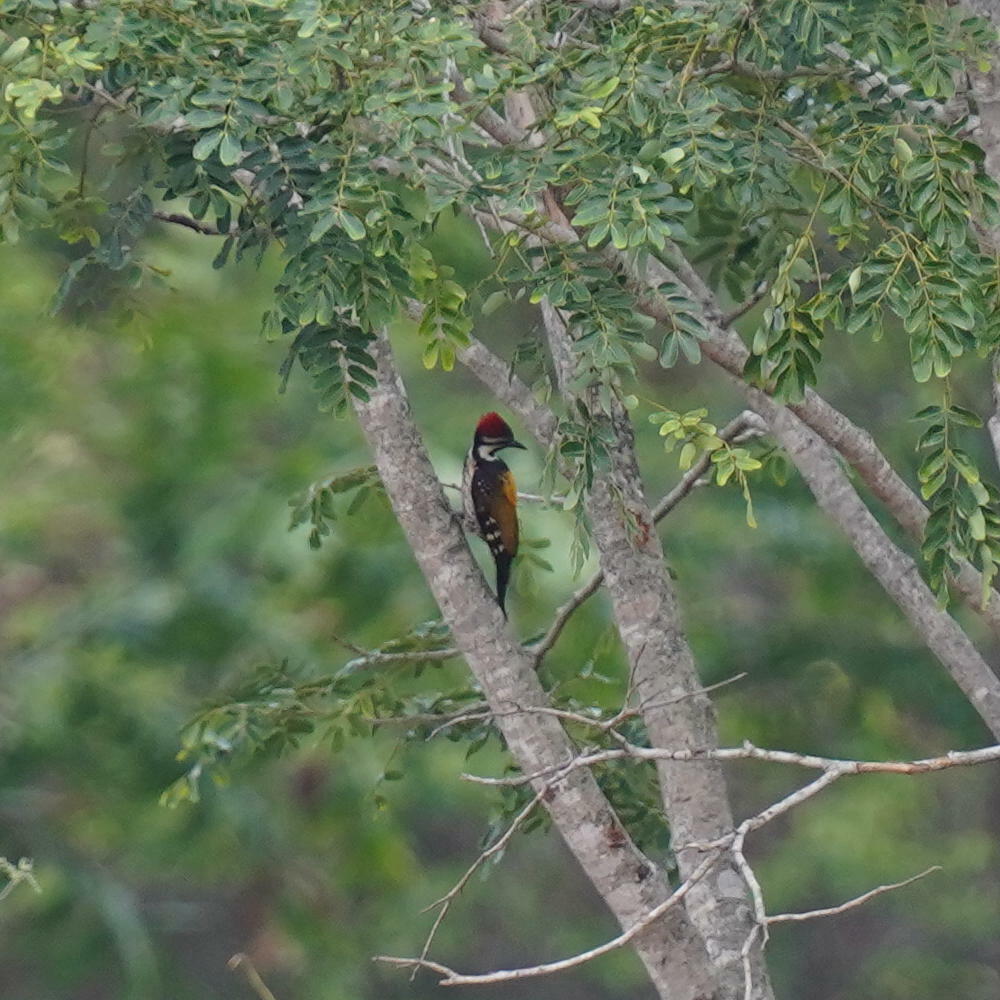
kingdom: Animalia
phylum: Chordata
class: Aves
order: Piciformes
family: Picidae
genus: Dinopium
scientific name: Dinopium benghalense
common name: Black-rumped flameback
